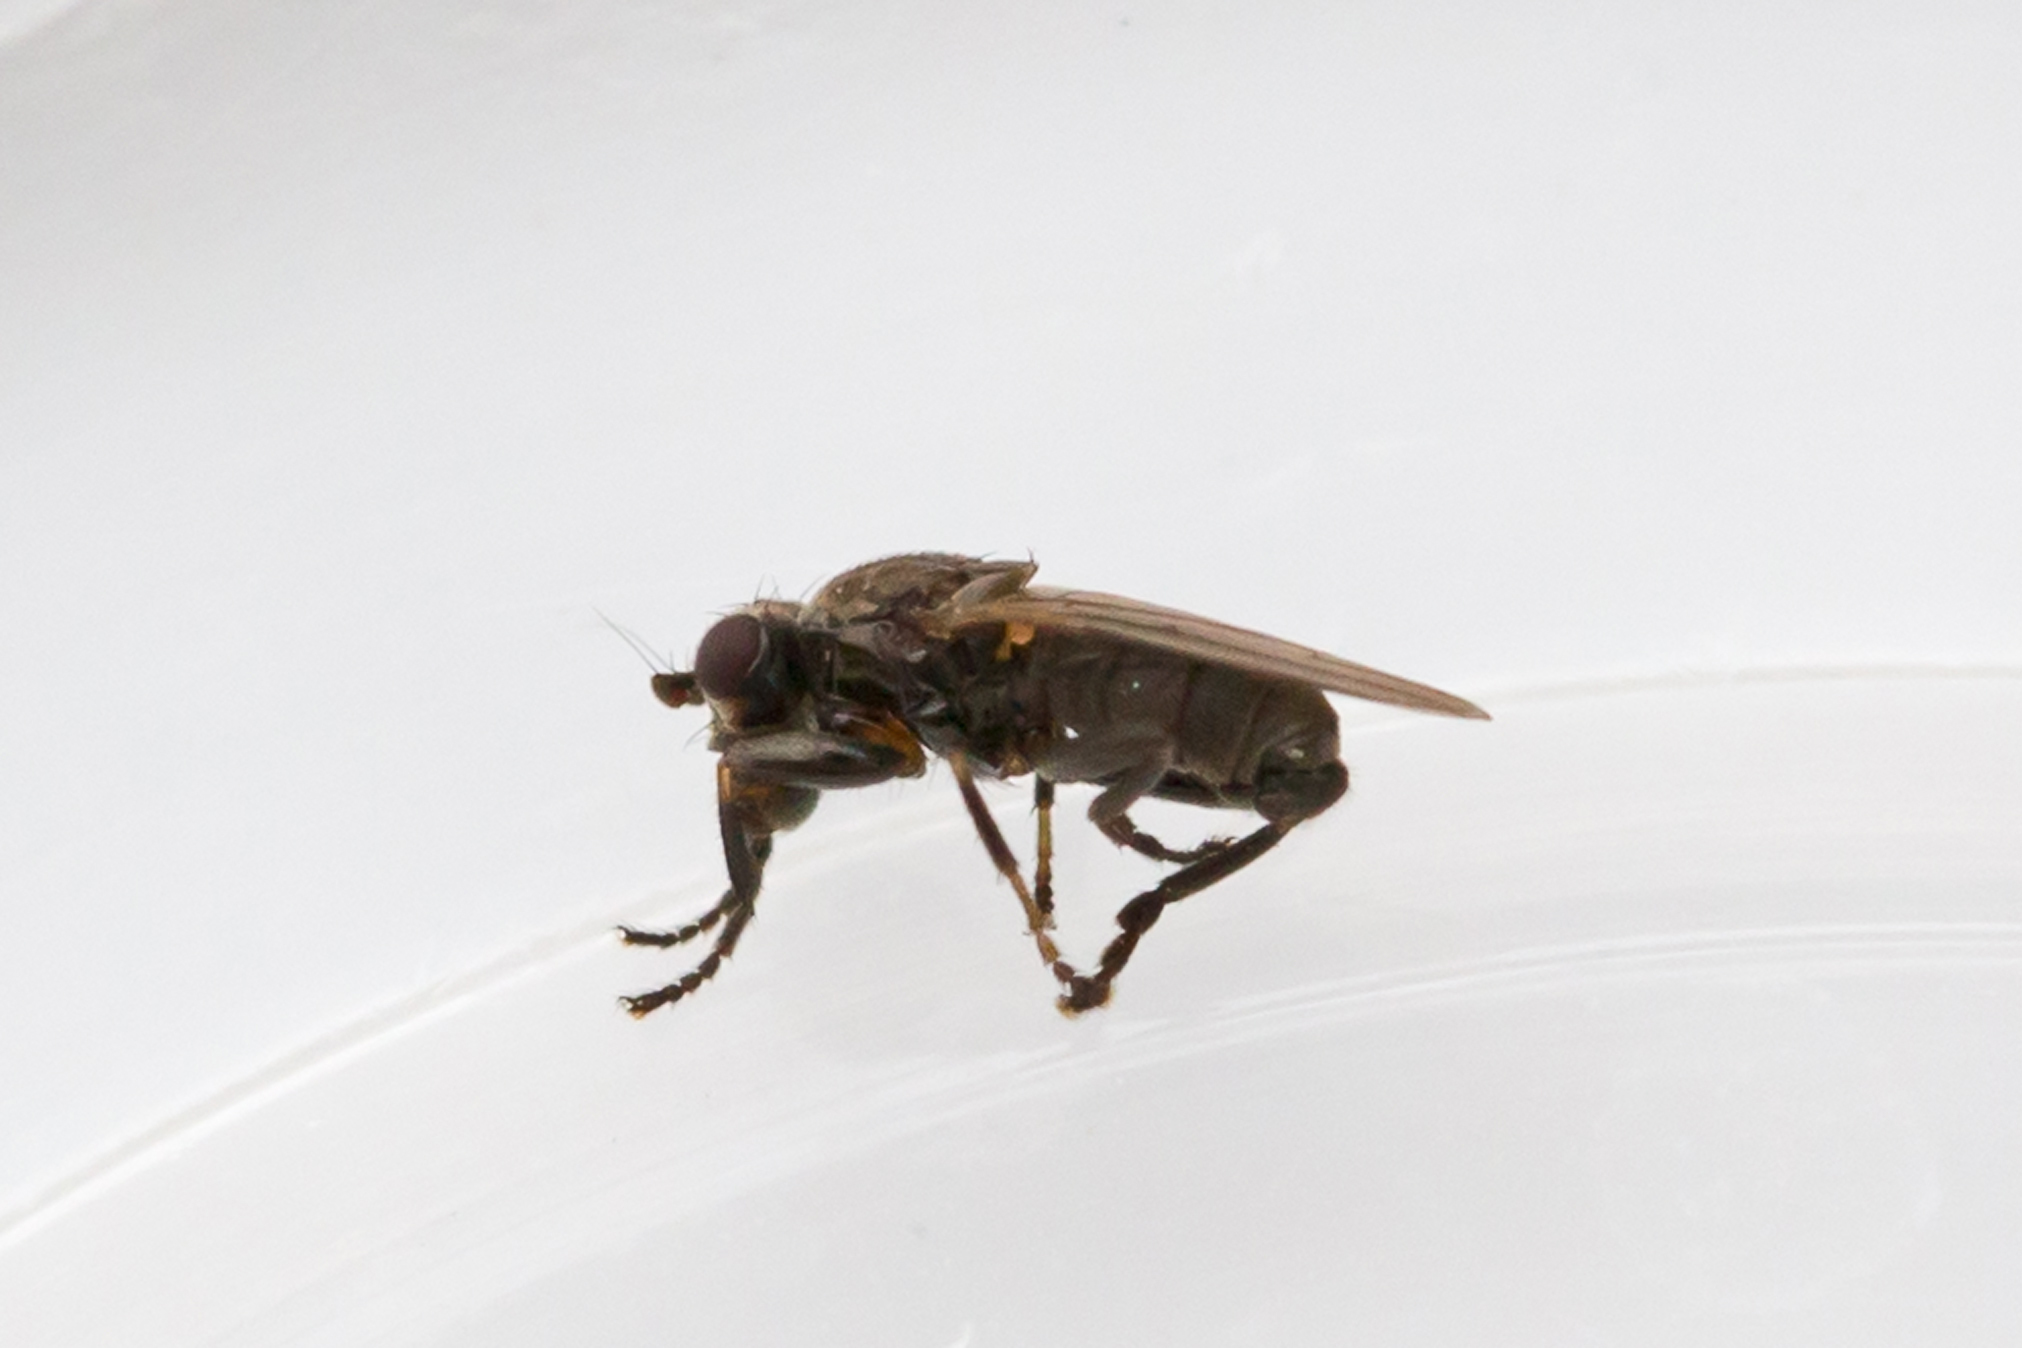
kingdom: Animalia
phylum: Arthropoda
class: Insecta
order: Diptera
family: Sphaeroceridae
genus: Lotophila
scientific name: Lotophila atra
